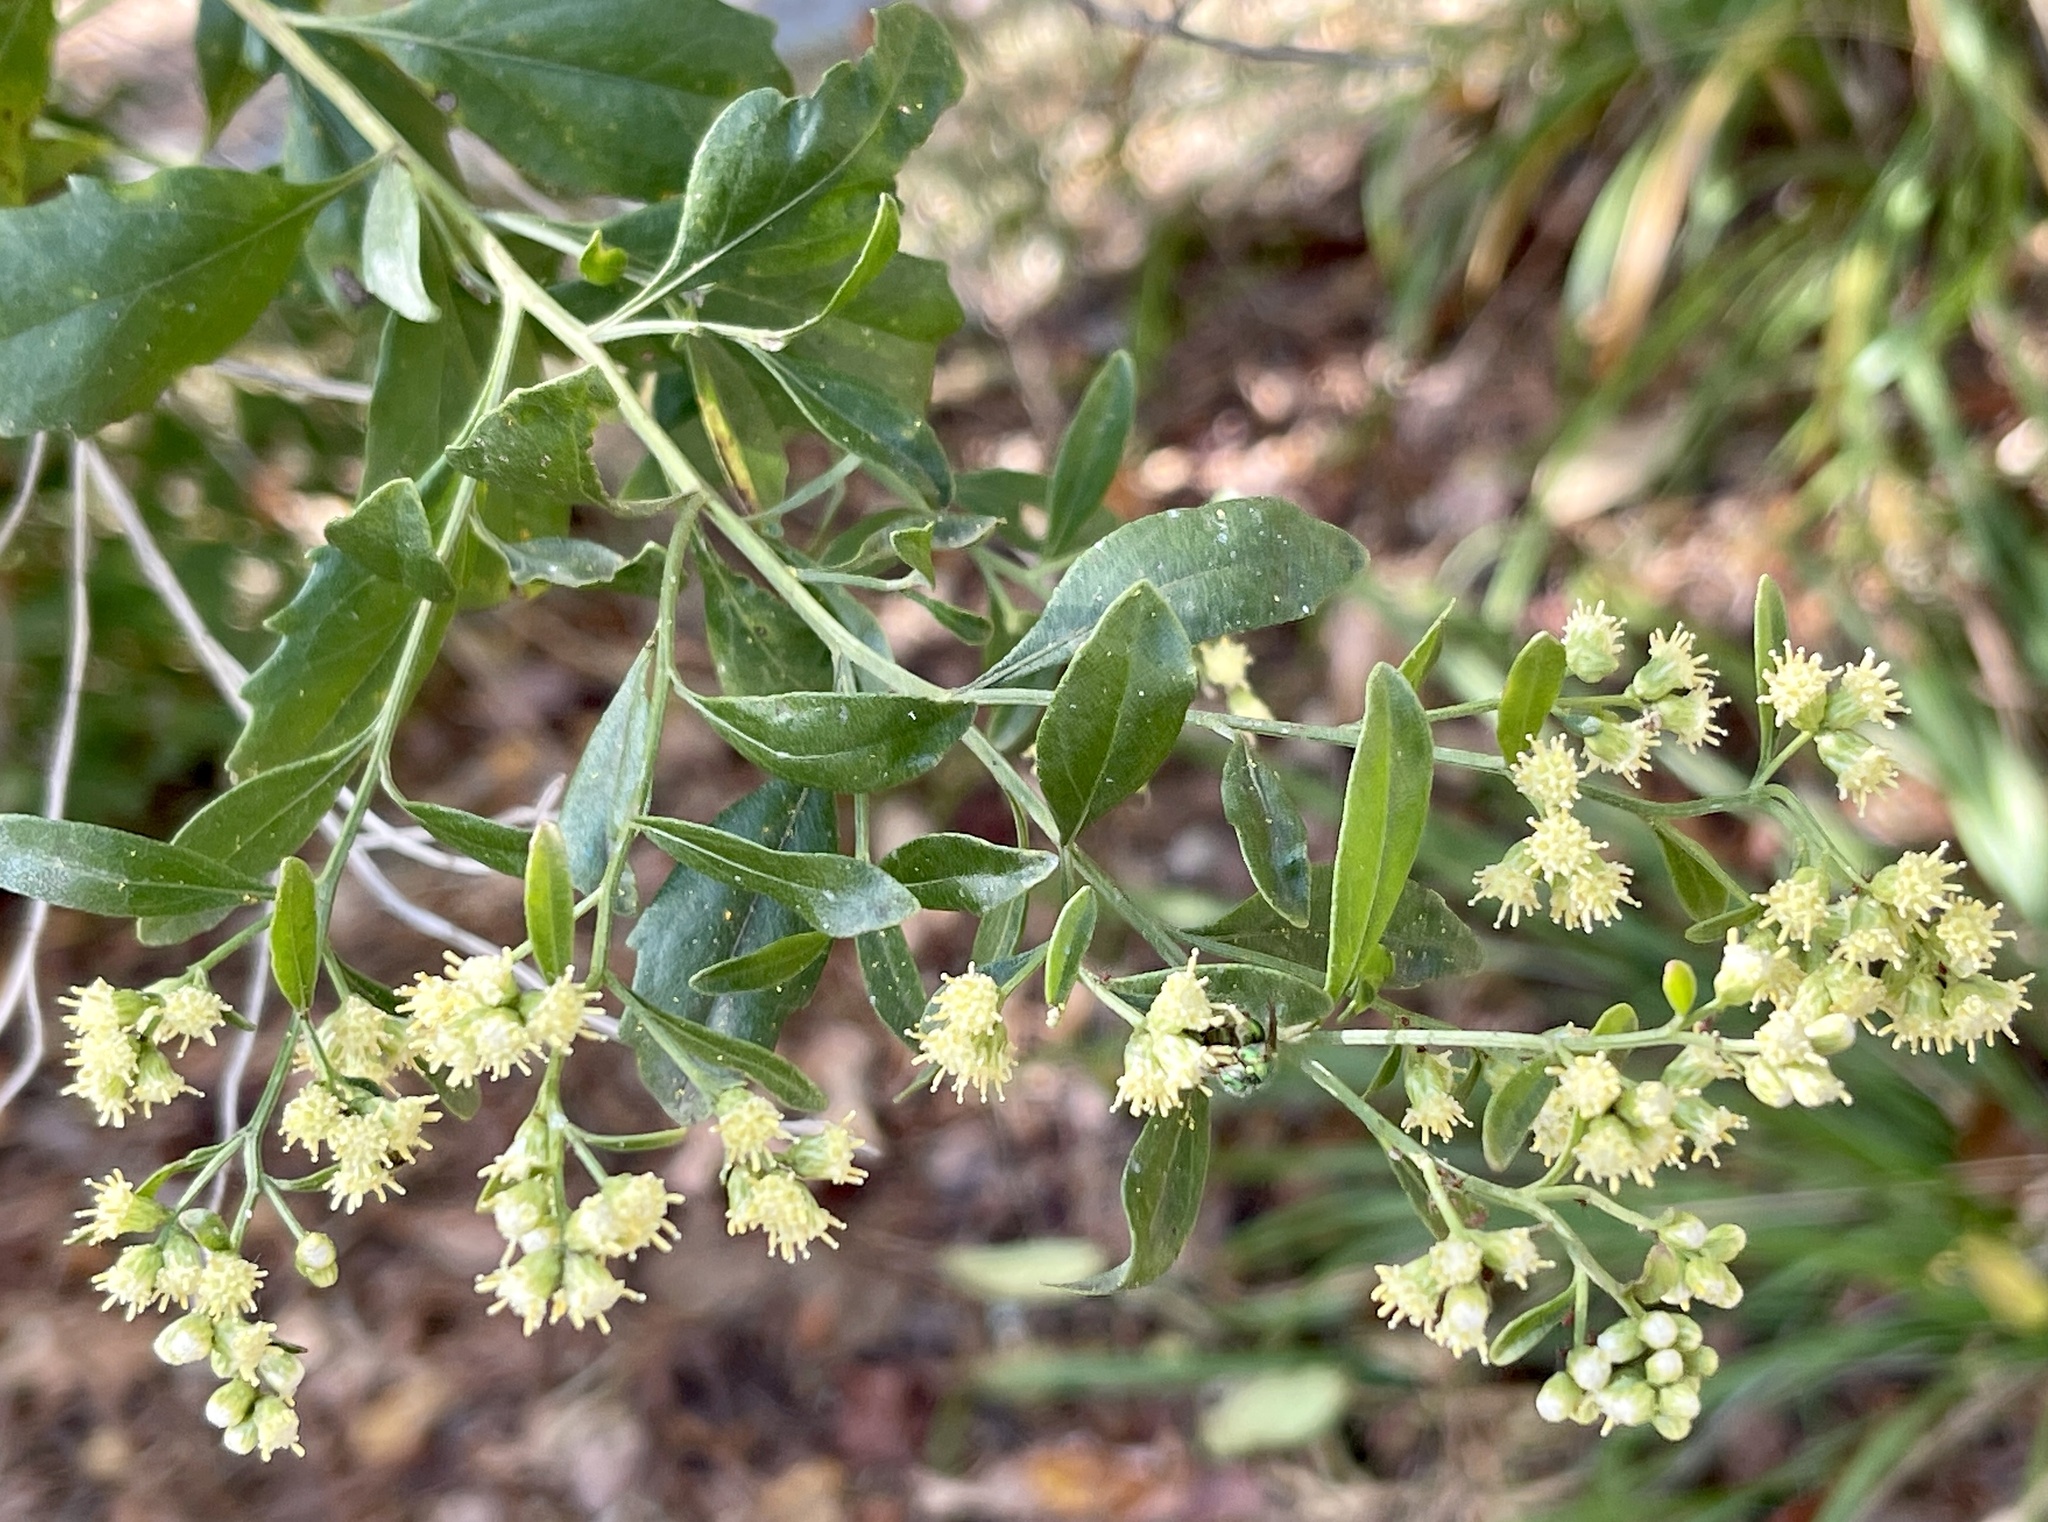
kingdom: Plantae
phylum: Tracheophyta
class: Magnoliopsida
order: Asterales
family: Asteraceae
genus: Baccharis
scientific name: Baccharis halimifolia
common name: Eastern baccharis
